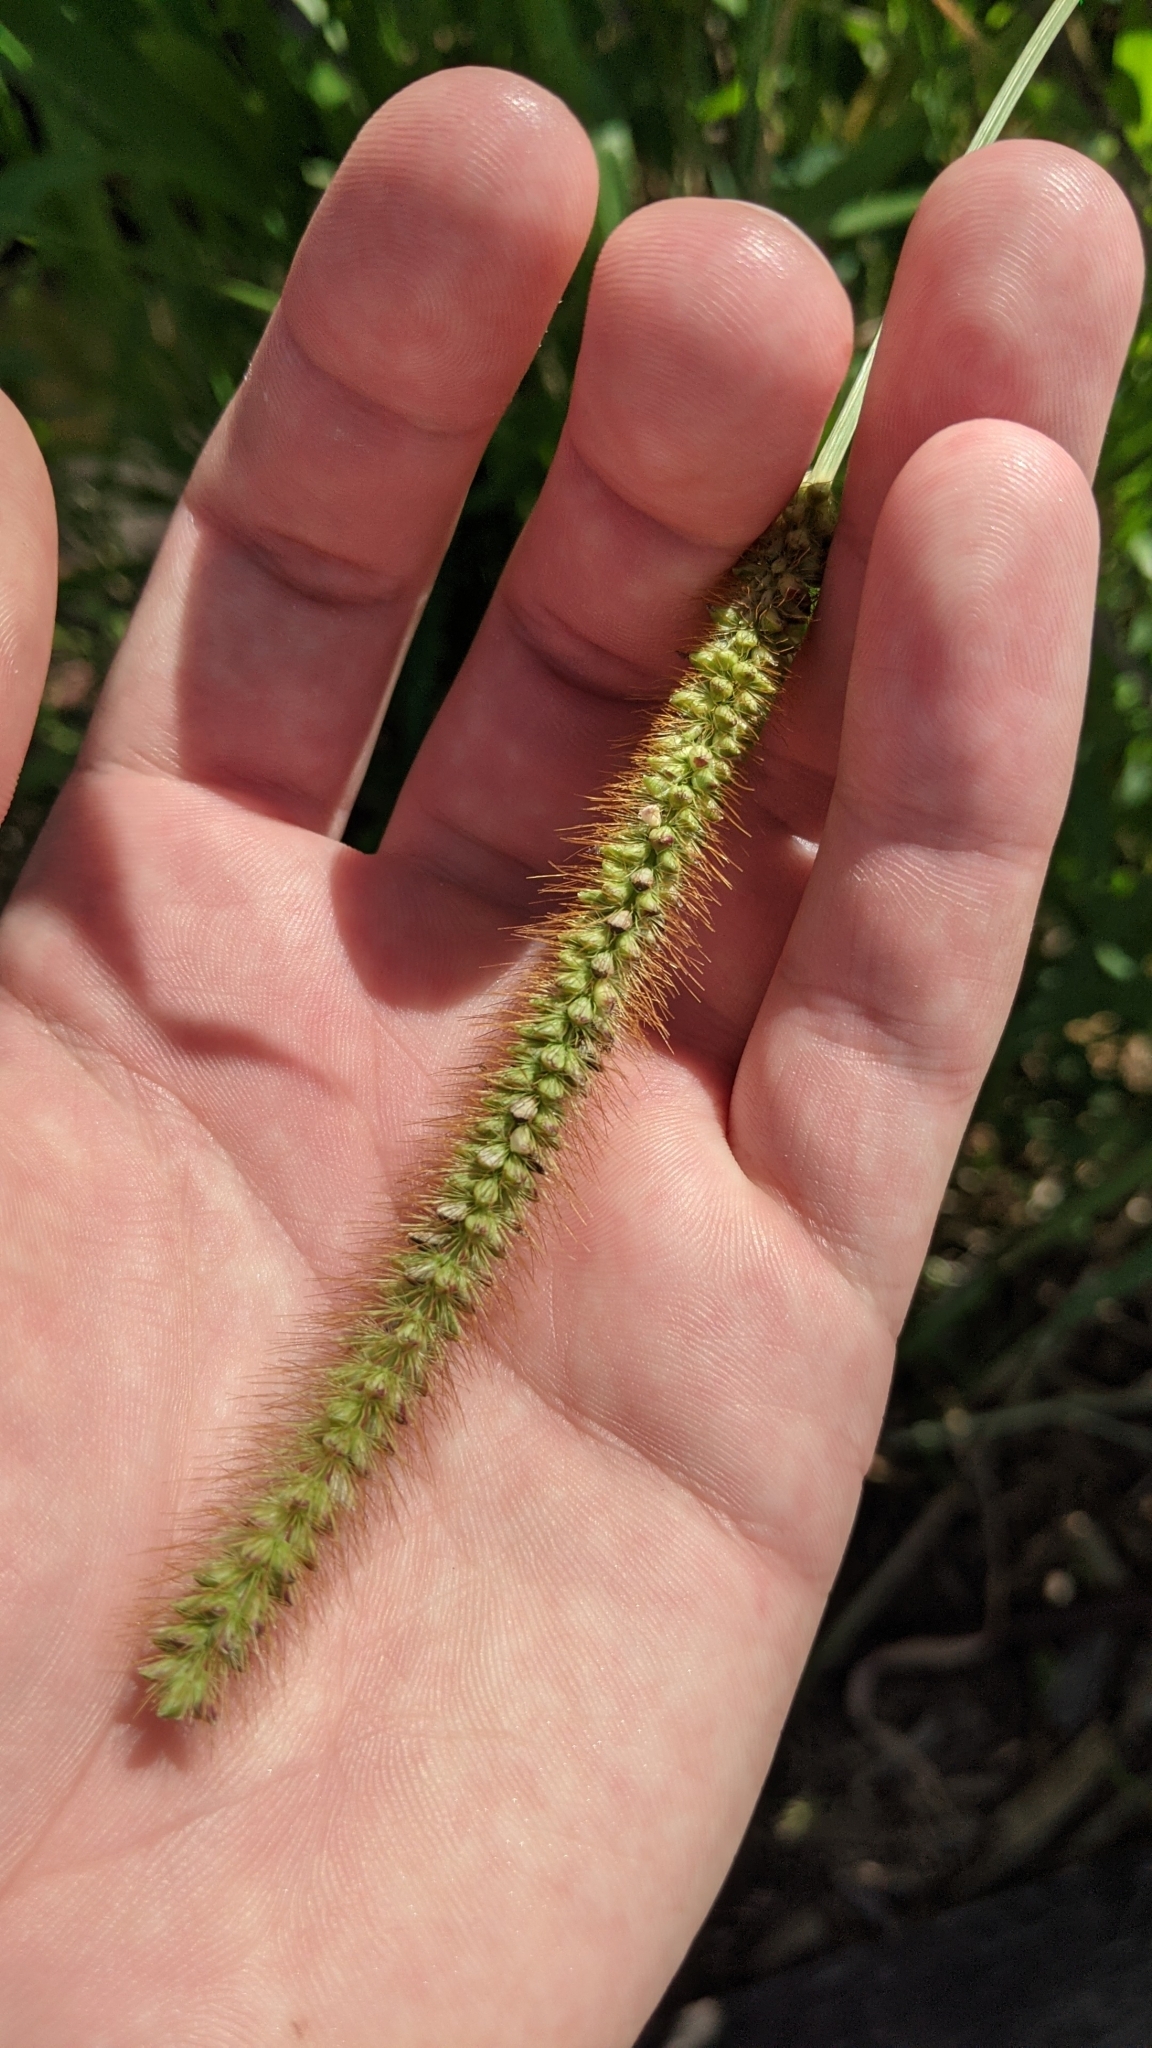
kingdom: Plantae
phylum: Tracheophyta
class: Liliopsida
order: Poales
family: Poaceae
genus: Setaria
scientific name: Setaria pumila
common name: Yellow bristle-grass
